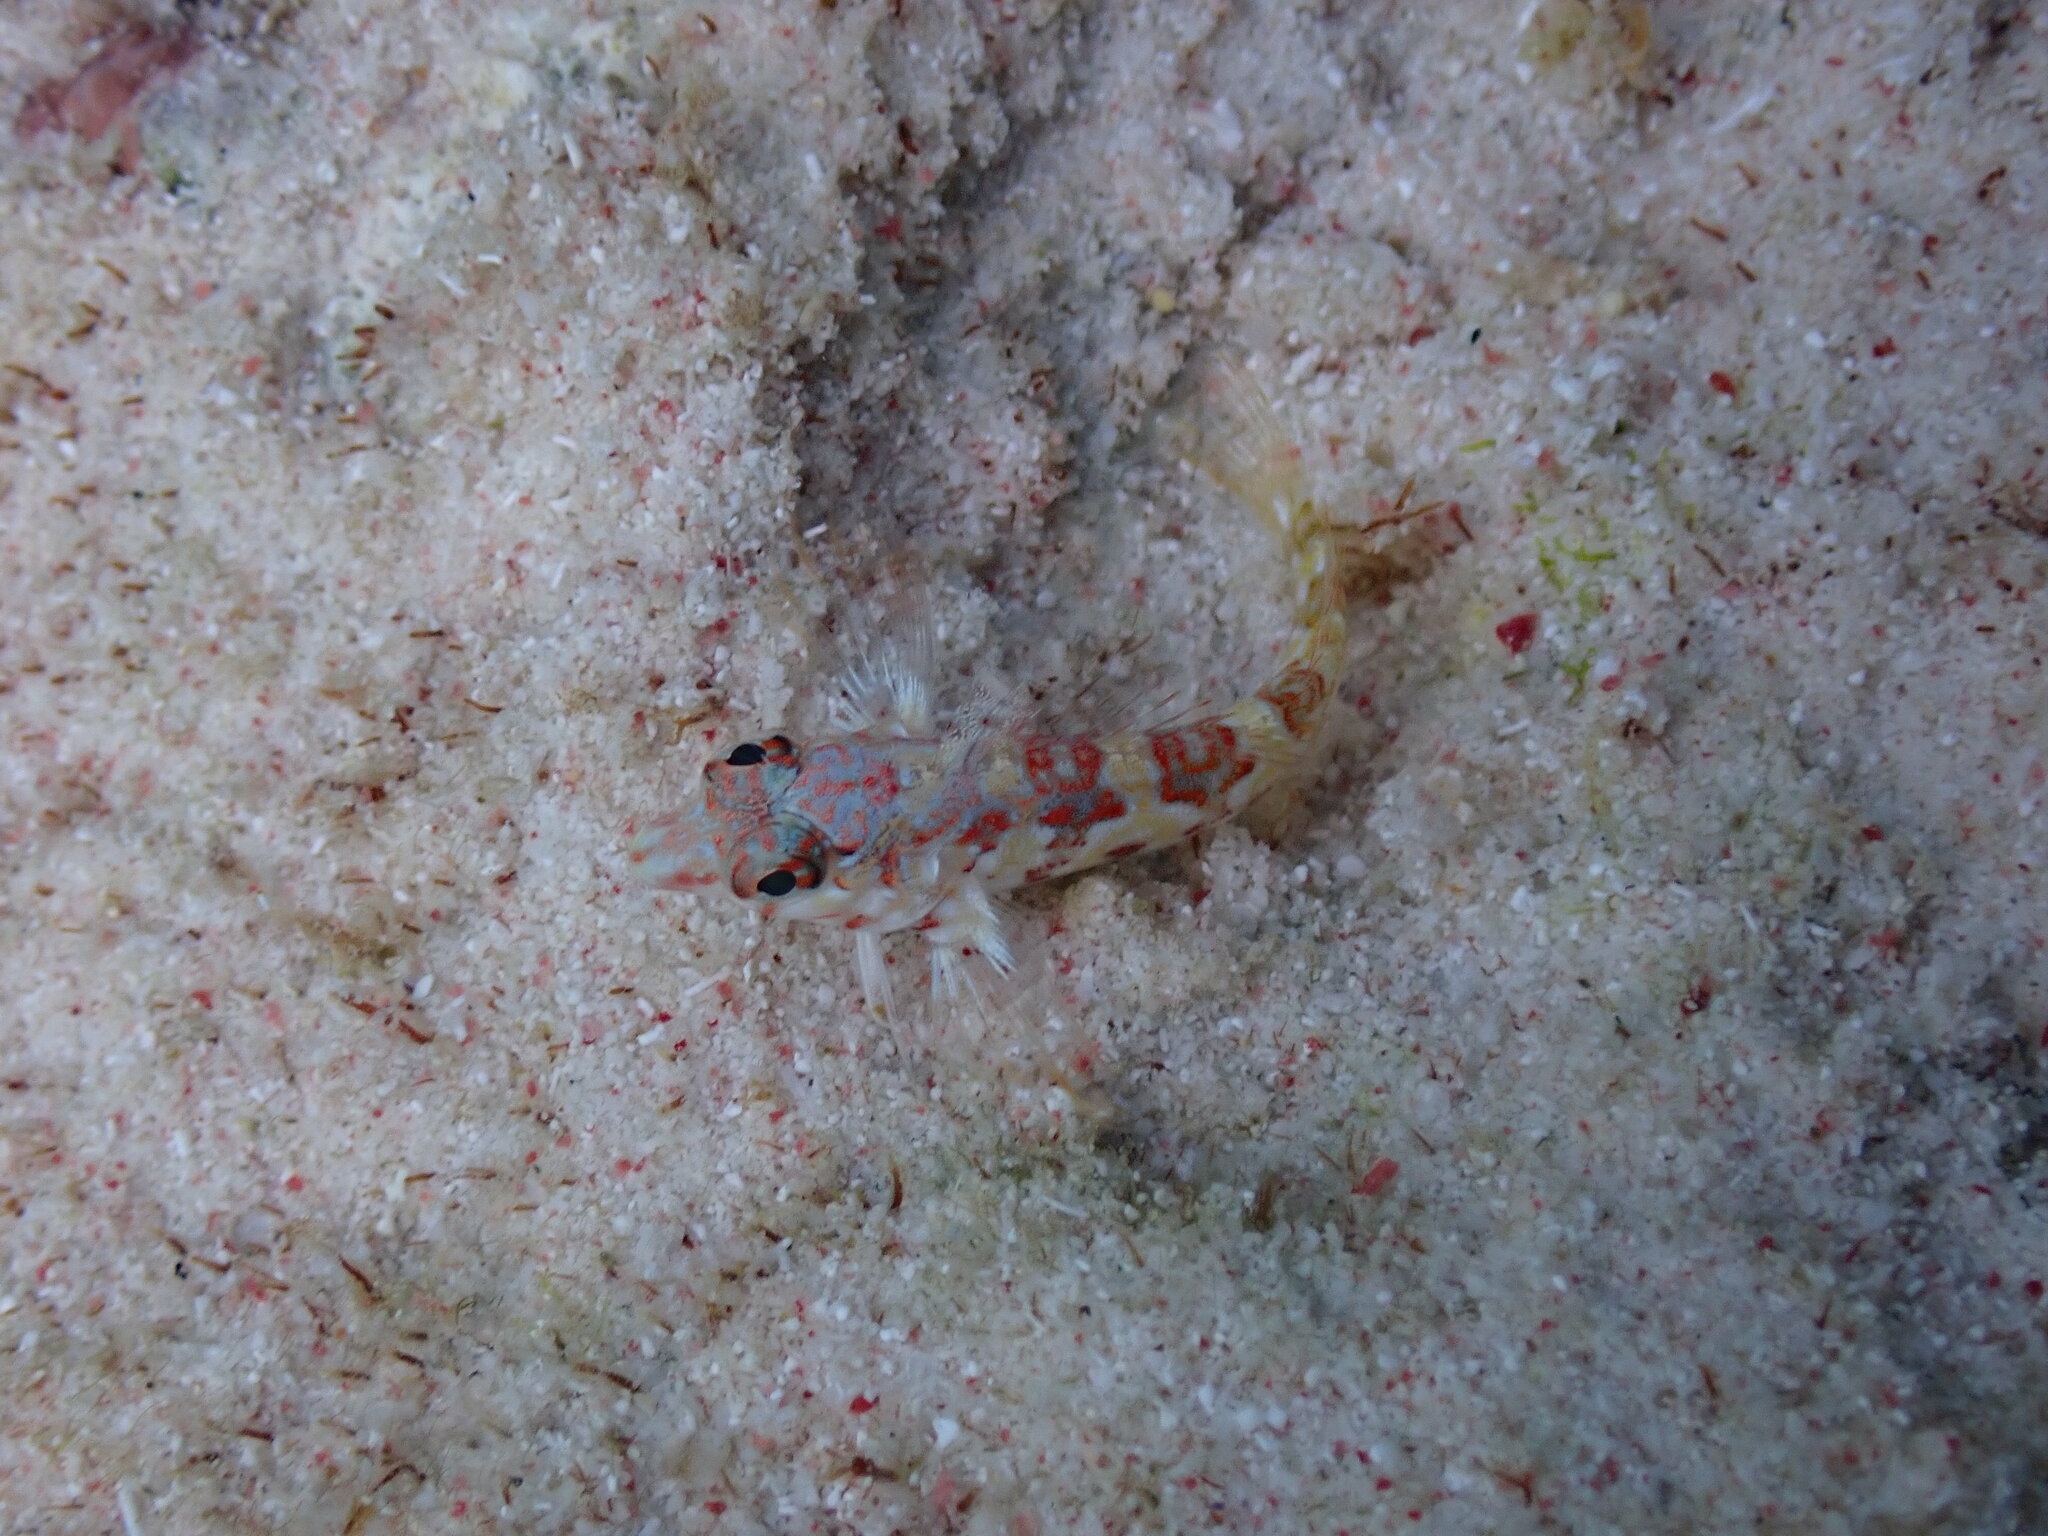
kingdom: Animalia
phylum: Chordata
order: Perciformes
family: Labrisomidae
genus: Malacoctenus
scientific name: Malacoctenus triangulatus
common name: Saddled blenny
